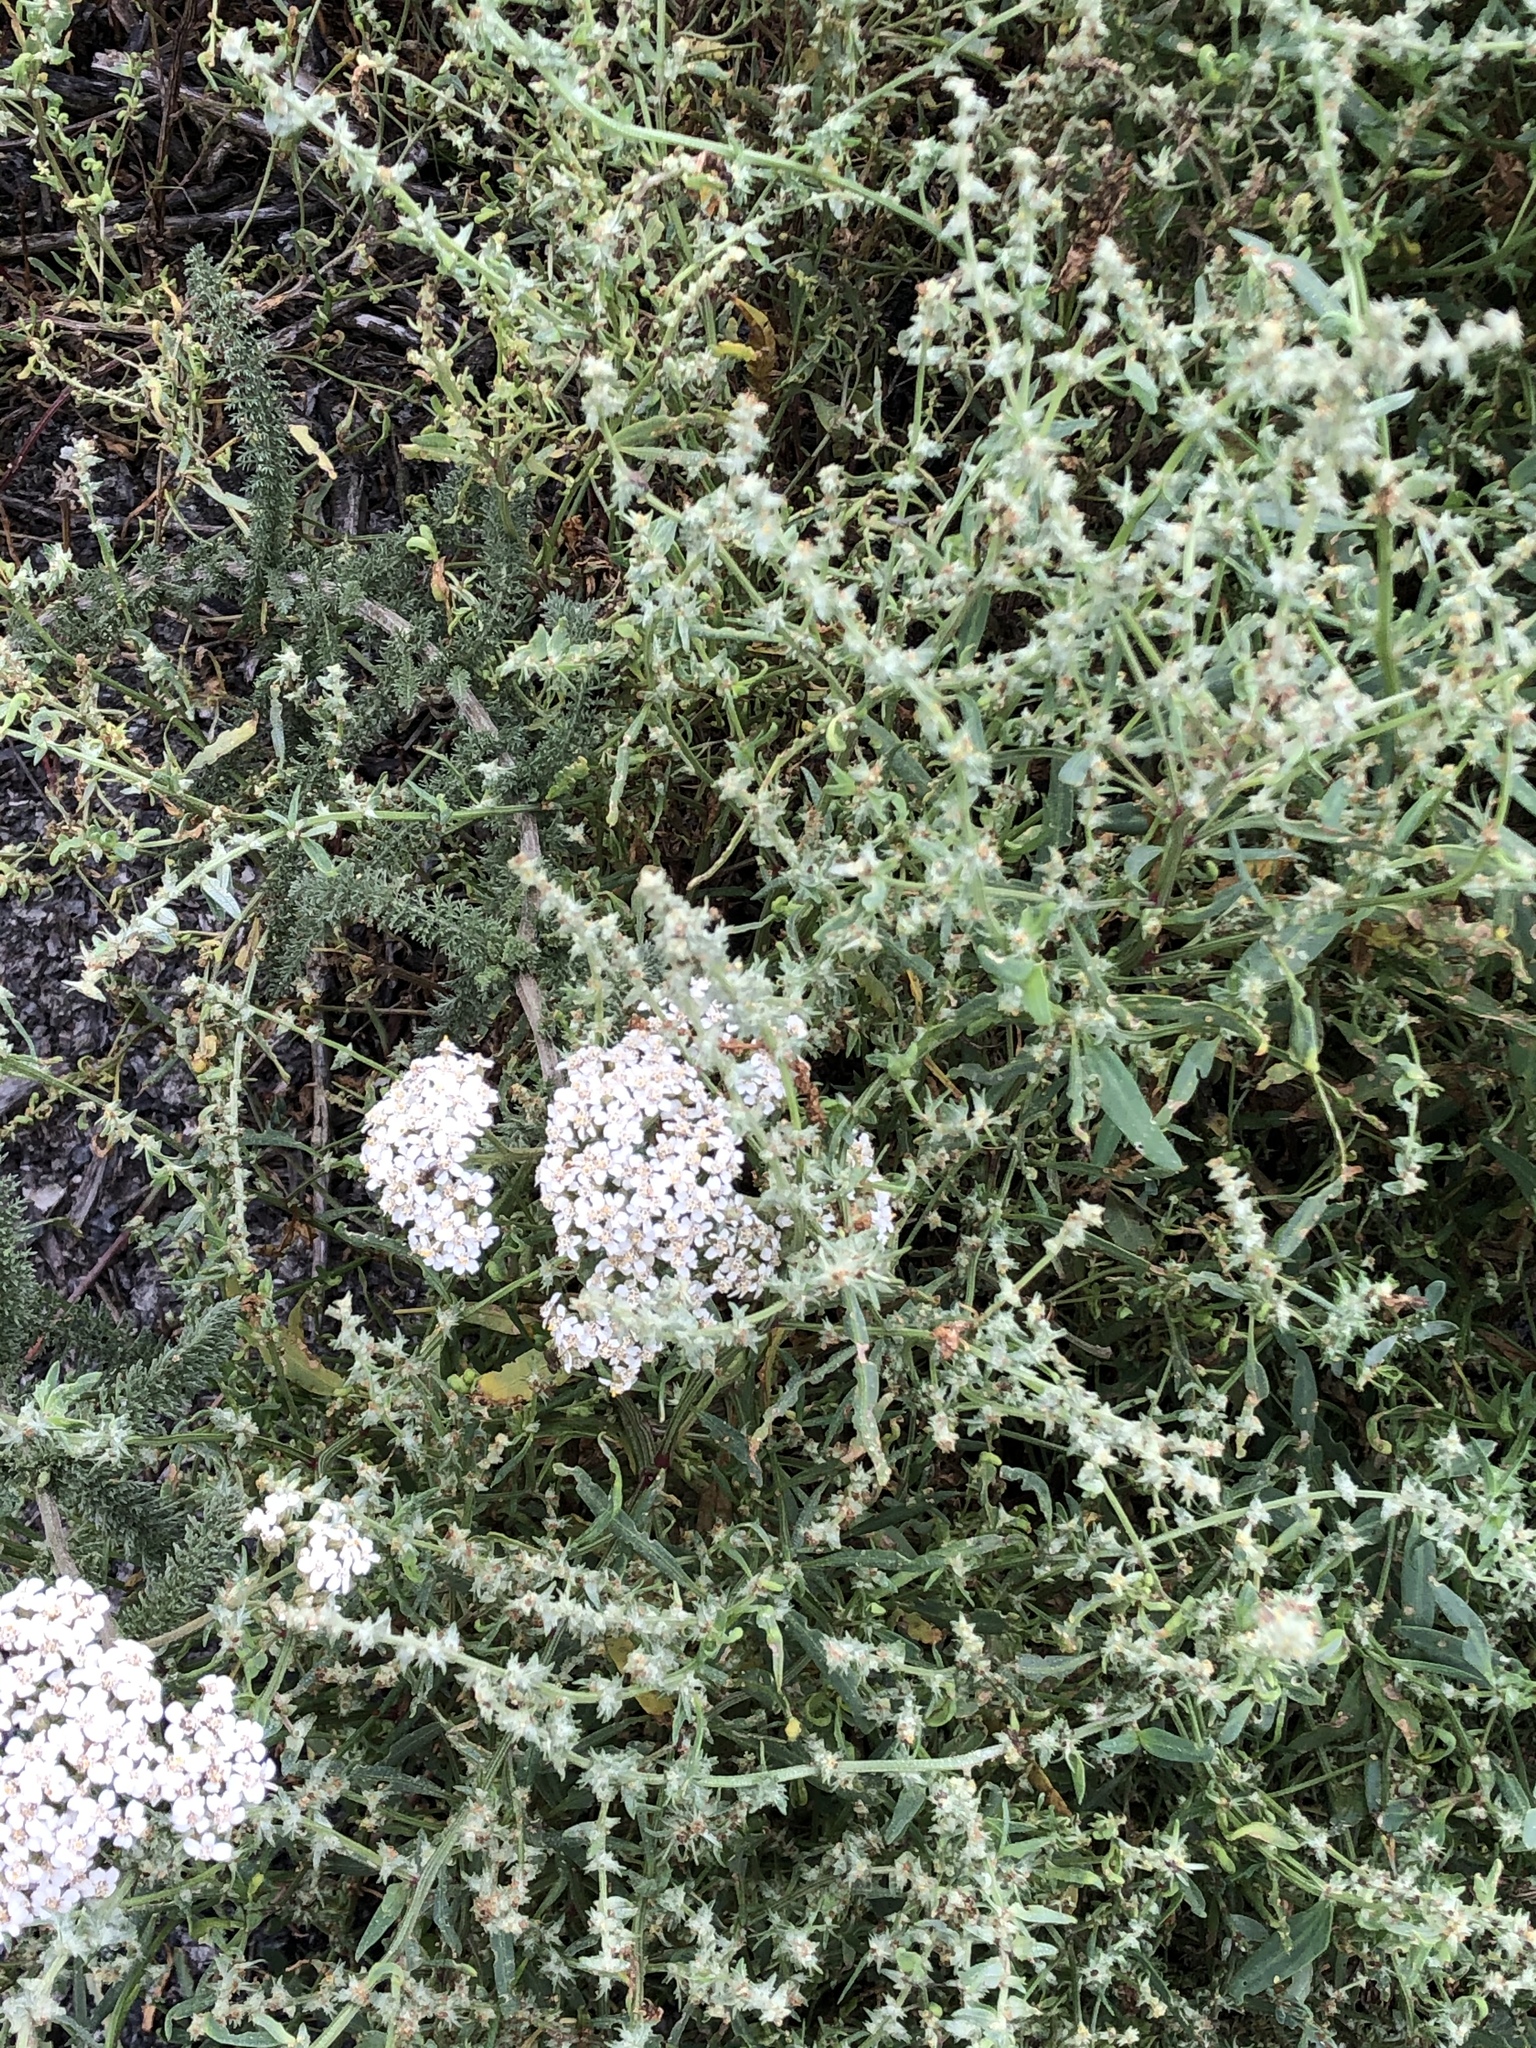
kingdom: Plantae
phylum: Tracheophyta
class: Magnoliopsida
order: Asterales
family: Asteraceae
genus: Achillea
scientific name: Achillea millefolium
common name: Yarrow
